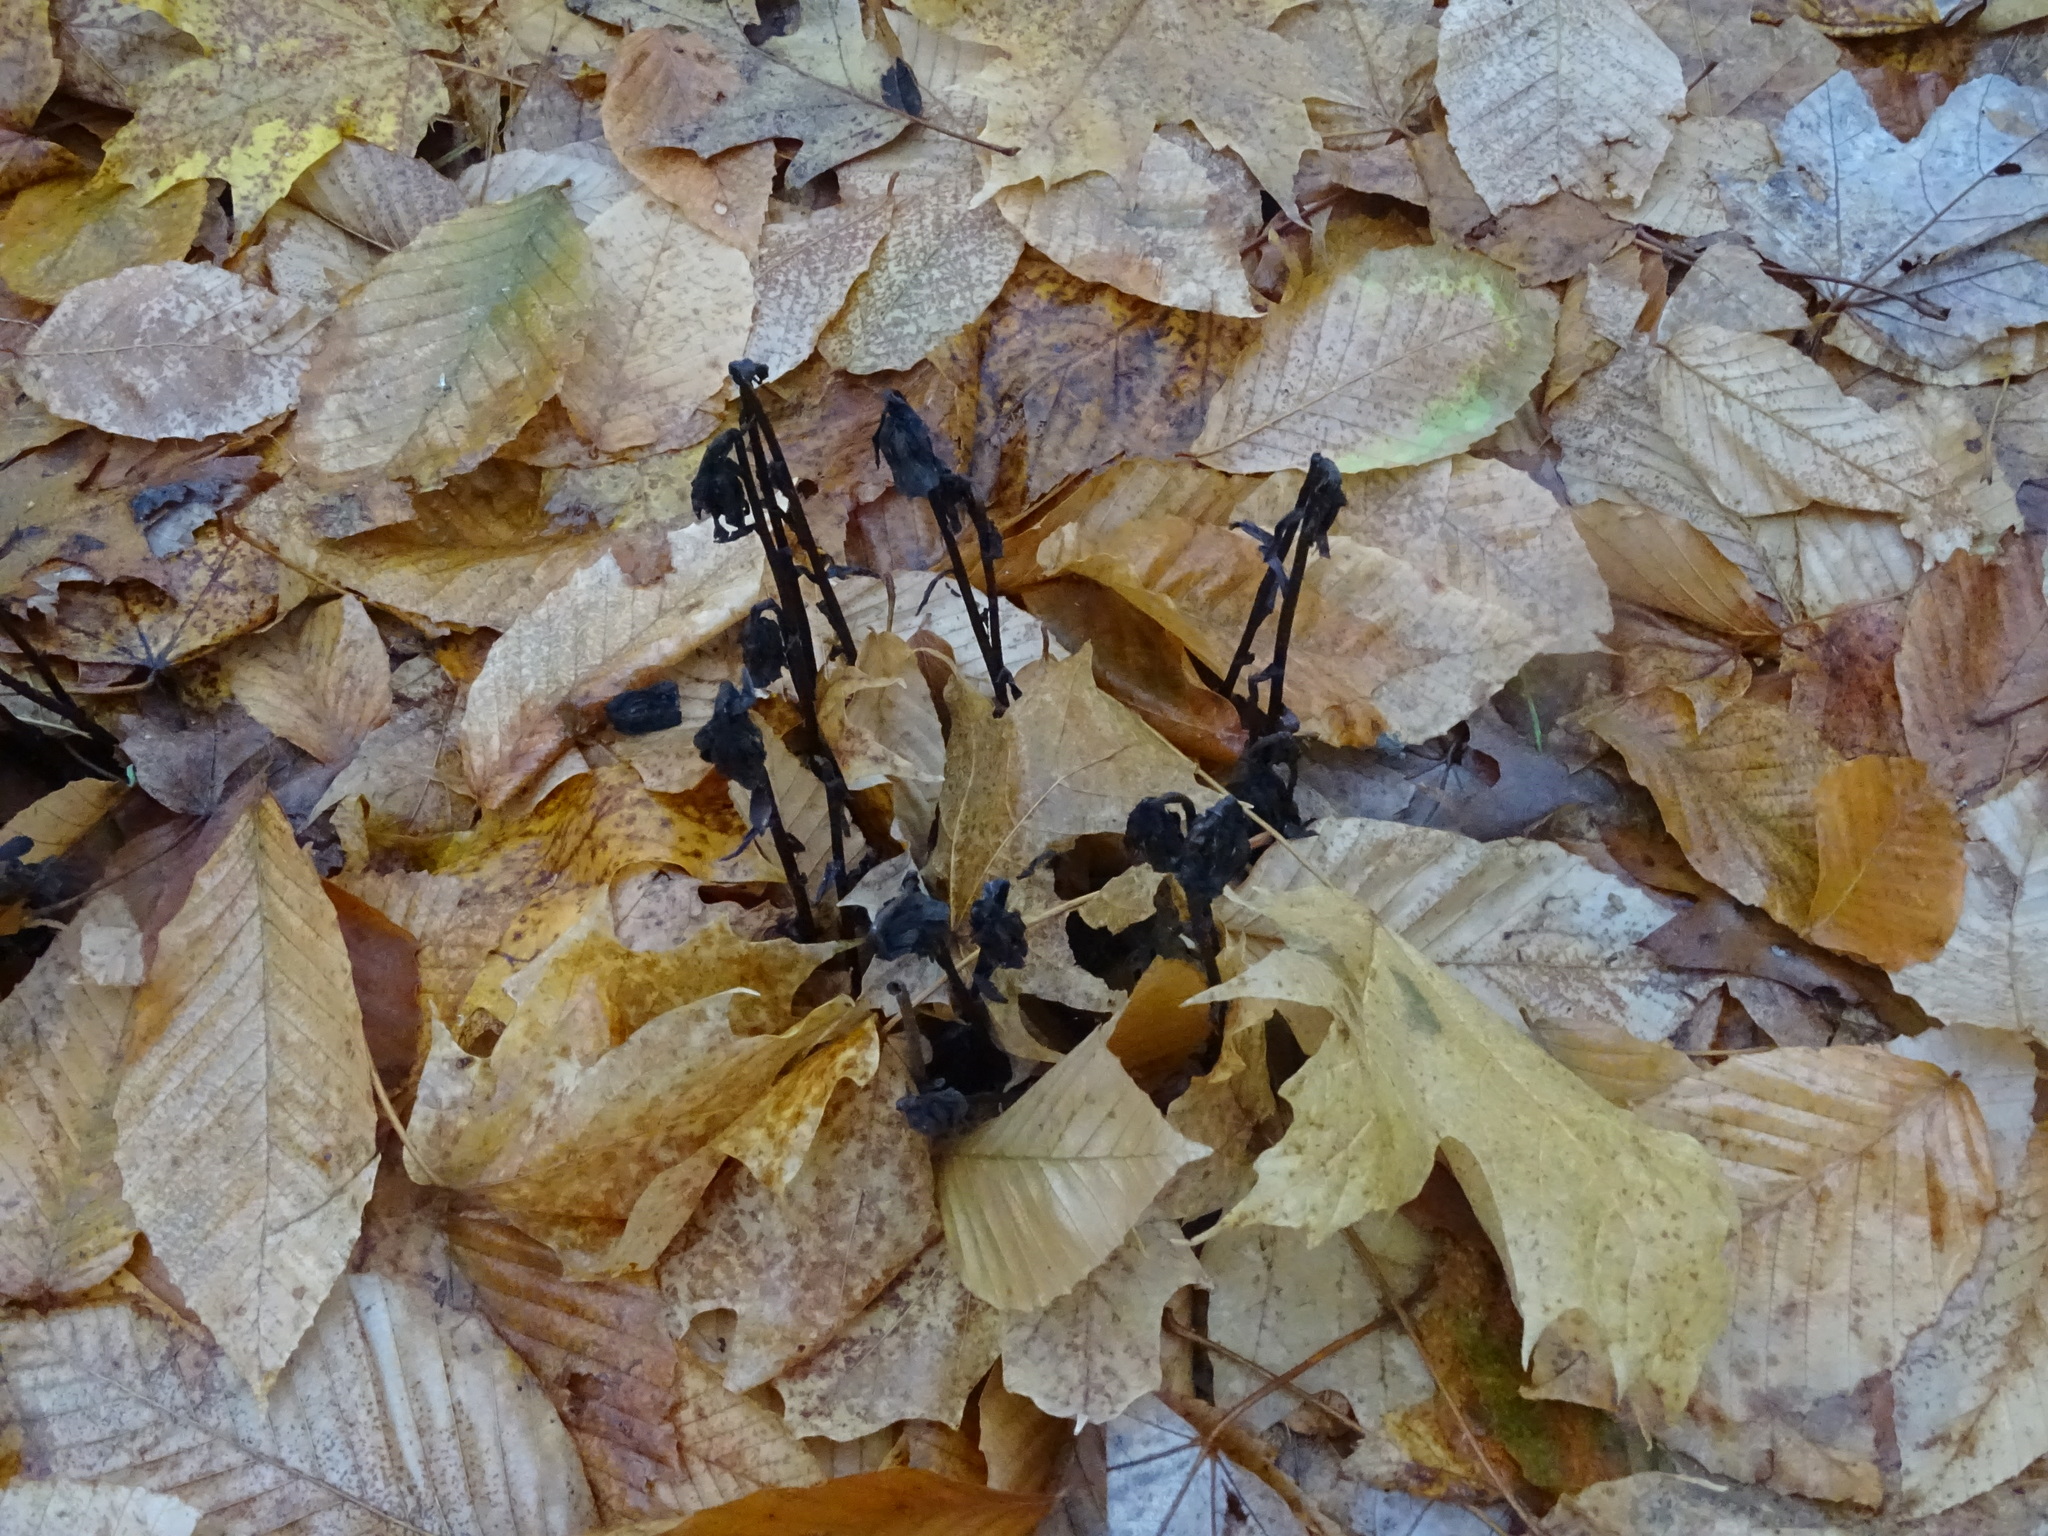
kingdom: Plantae
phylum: Tracheophyta
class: Magnoliopsida
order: Ericales
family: Ericaceae
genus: Monotropa
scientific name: Monotropa uniflora
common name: Convulsion root
